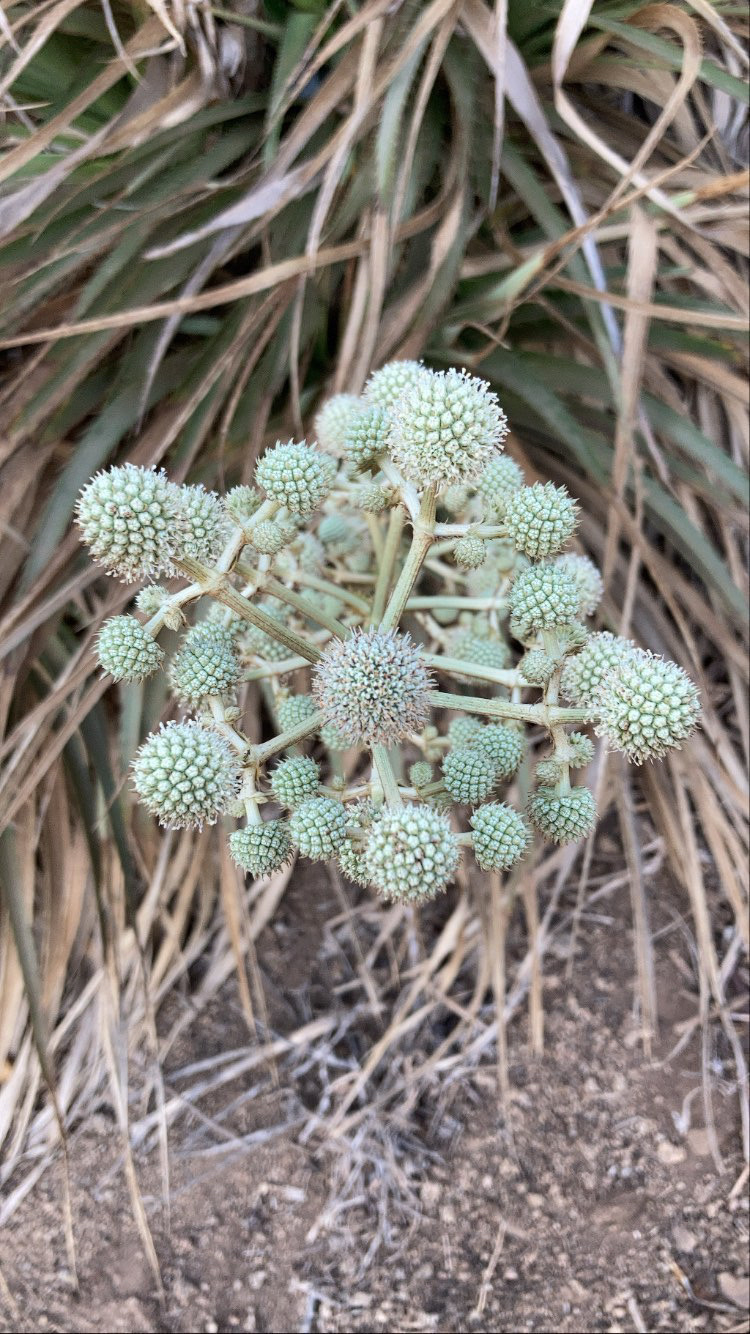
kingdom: Plantae
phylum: Tracheophyta
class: Magnoliopsida
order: Apiales
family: Apiaceae
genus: Eryngium
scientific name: Eryngium humboldtii
